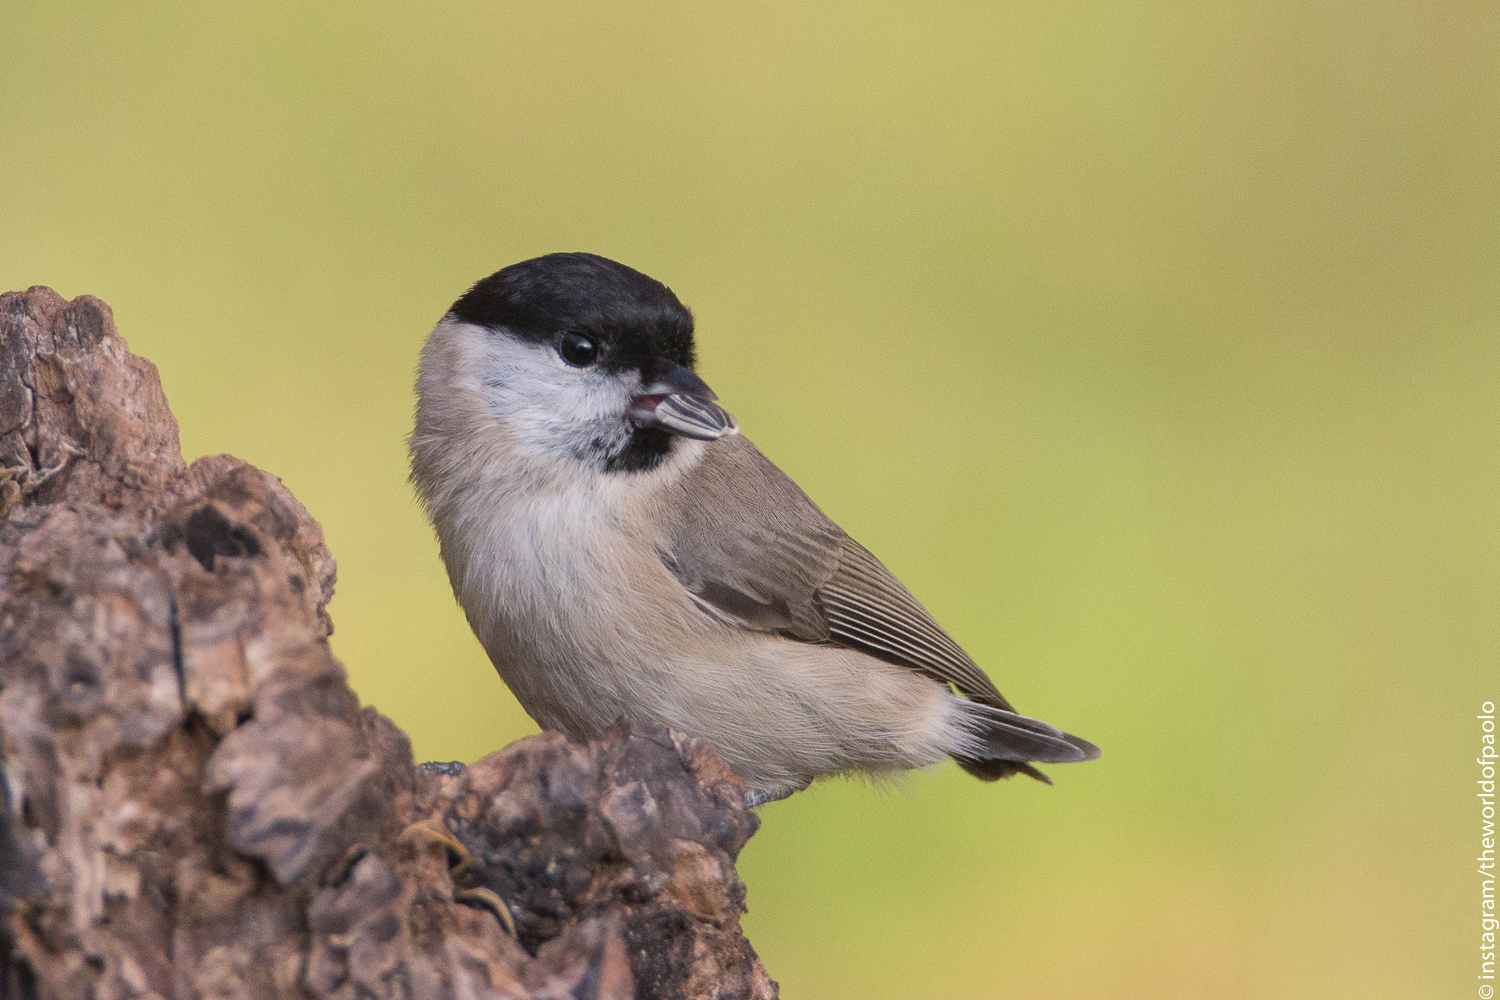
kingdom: Animalia
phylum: Chordata
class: Aves
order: Passeriformes
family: Paridae
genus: Poecile
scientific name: Poecile palustris
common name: Marsh tit
